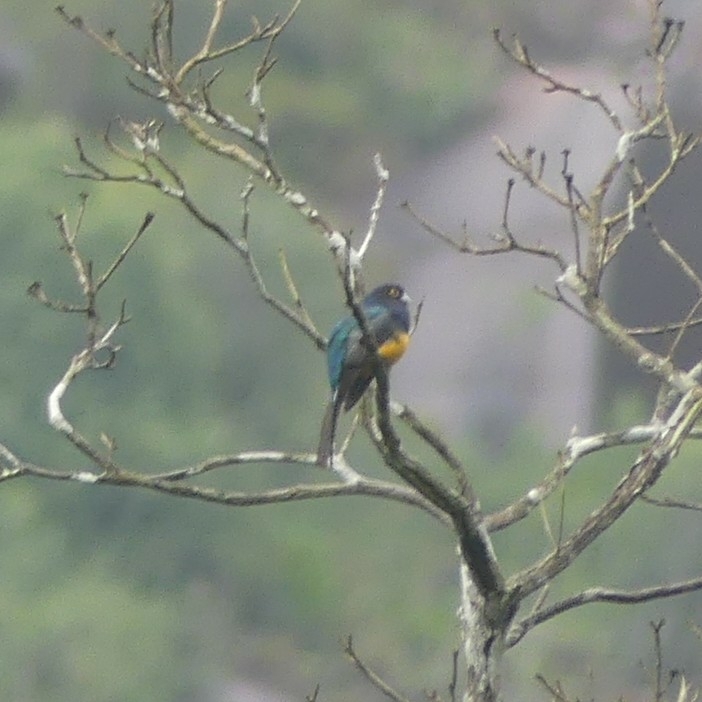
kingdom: Animalia
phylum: Chordata
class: Aves
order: Trogoniformes
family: Trogonidae
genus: Trogon
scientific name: Trogon violaceus
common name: Guianan trogon
